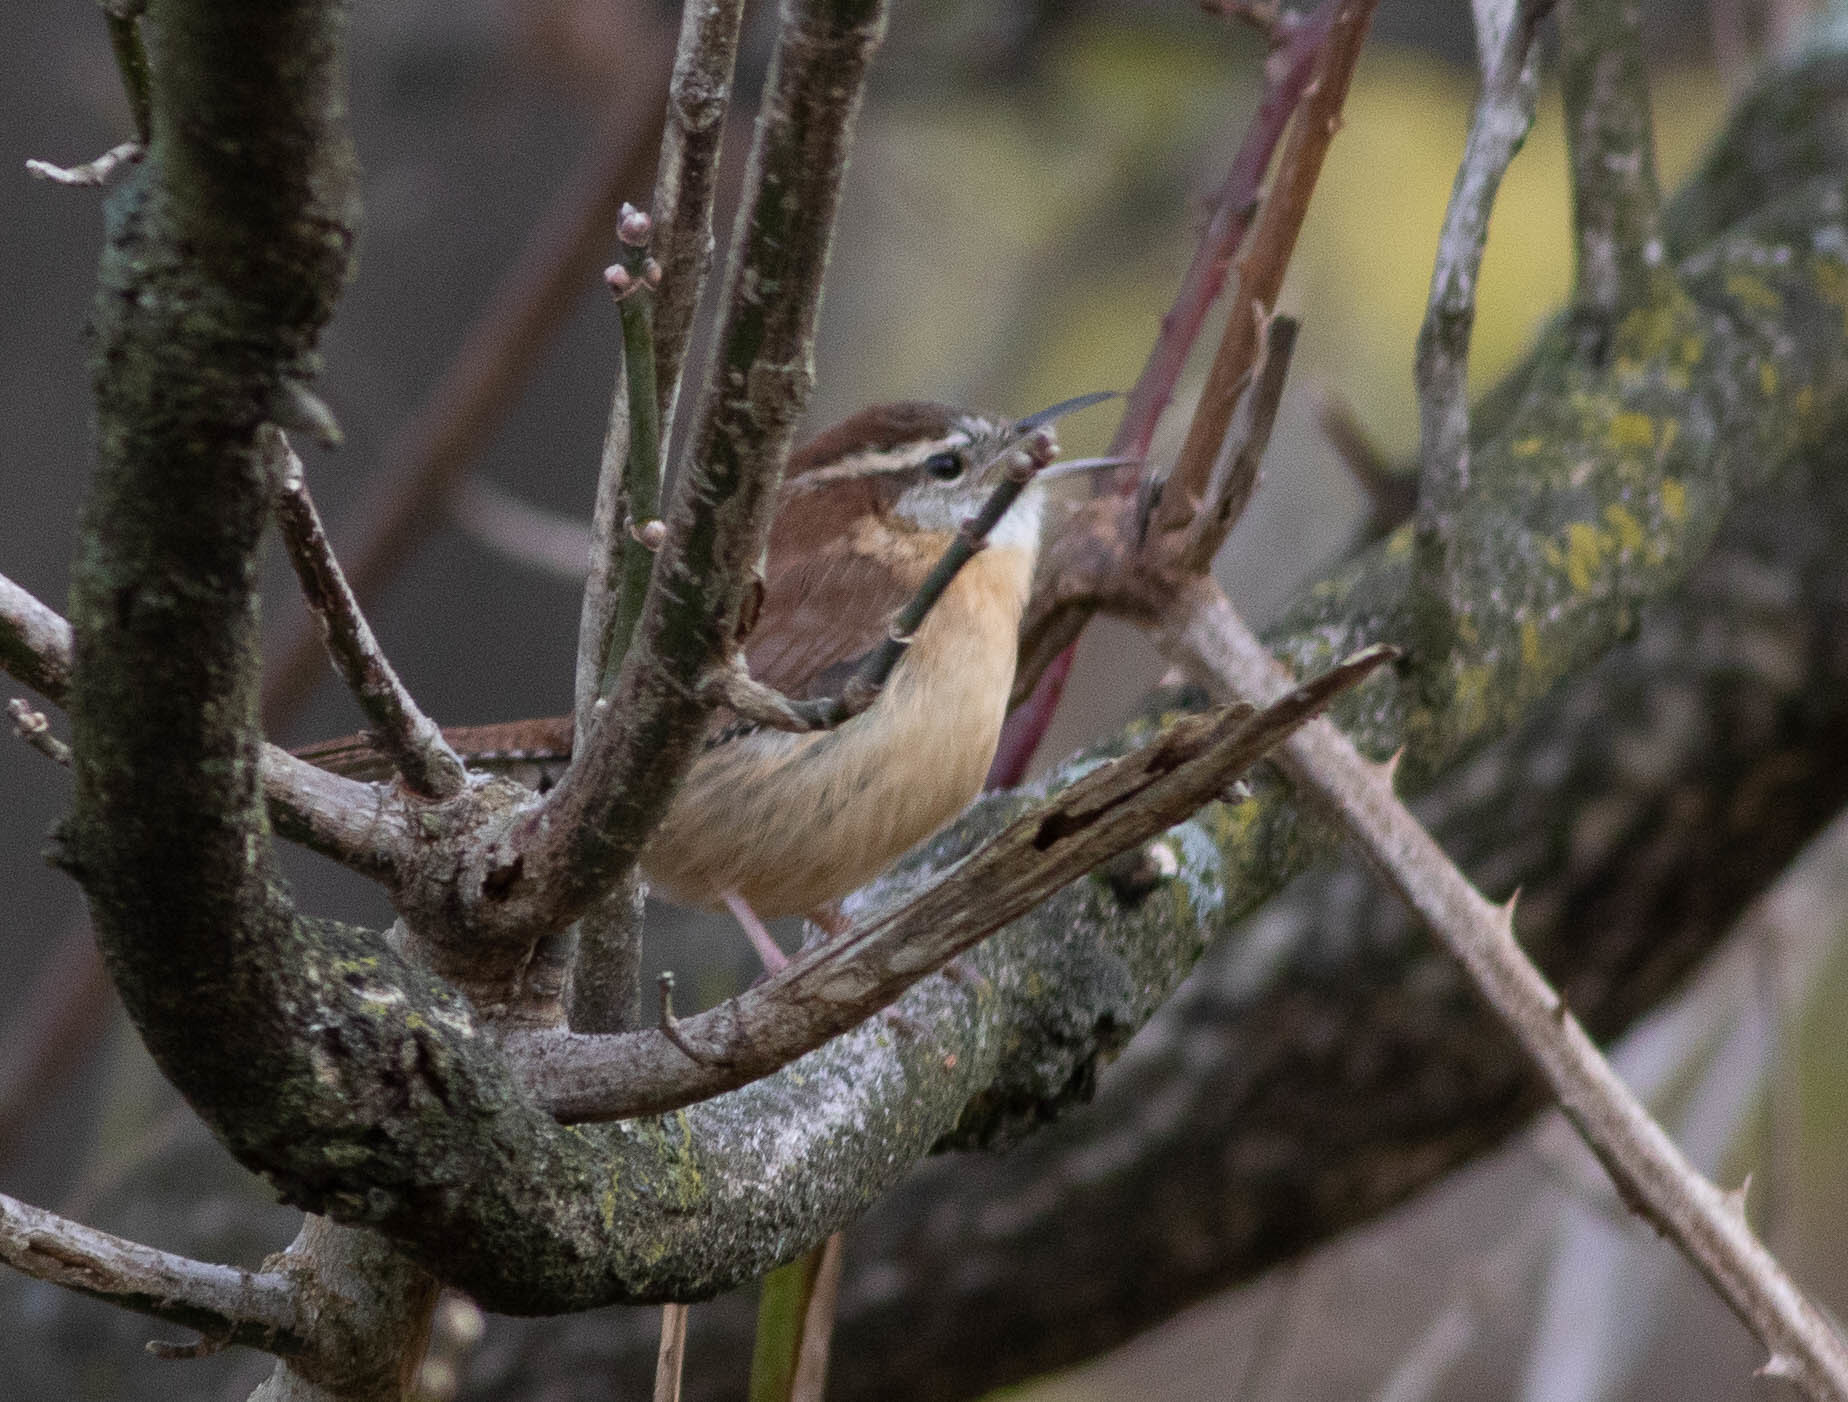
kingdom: Animalia
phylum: Chordata
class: Aves
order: Passeriformes
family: Troglodytidae
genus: Thryothorus
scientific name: Thryothorus ludovicianus
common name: Carolina wren
